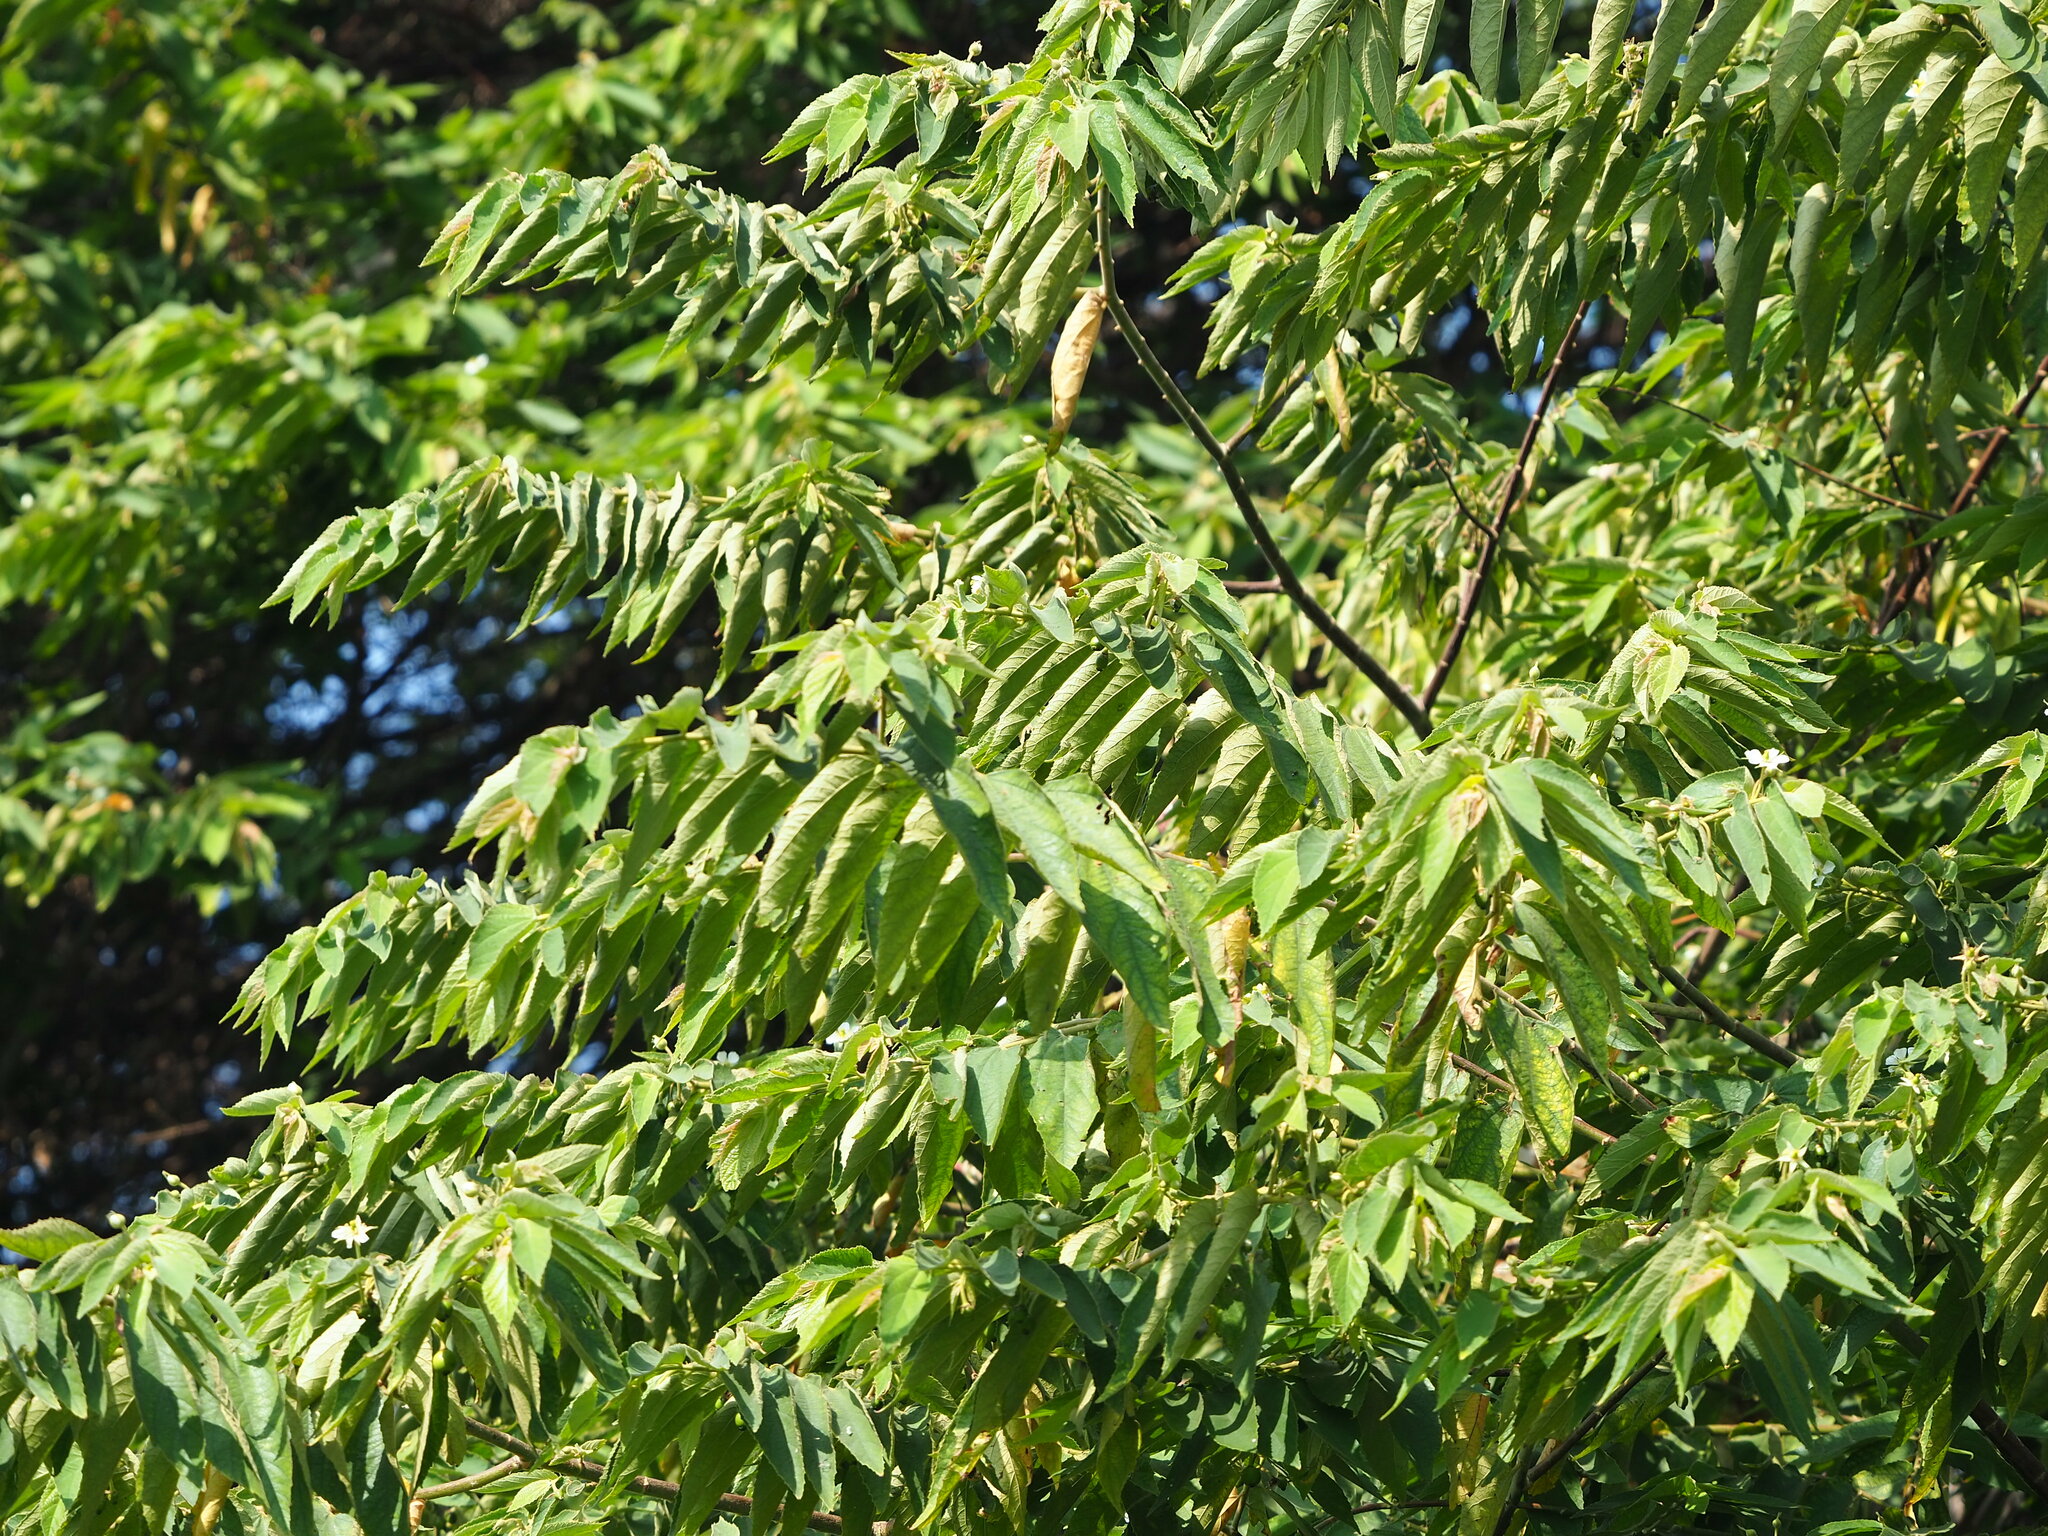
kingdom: Plantae
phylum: Tracheophyta
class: Magnoliopsida
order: Malvales
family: Muntingiaceae
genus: Muntingia
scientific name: Muntingia calabura
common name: Strawberrytree
